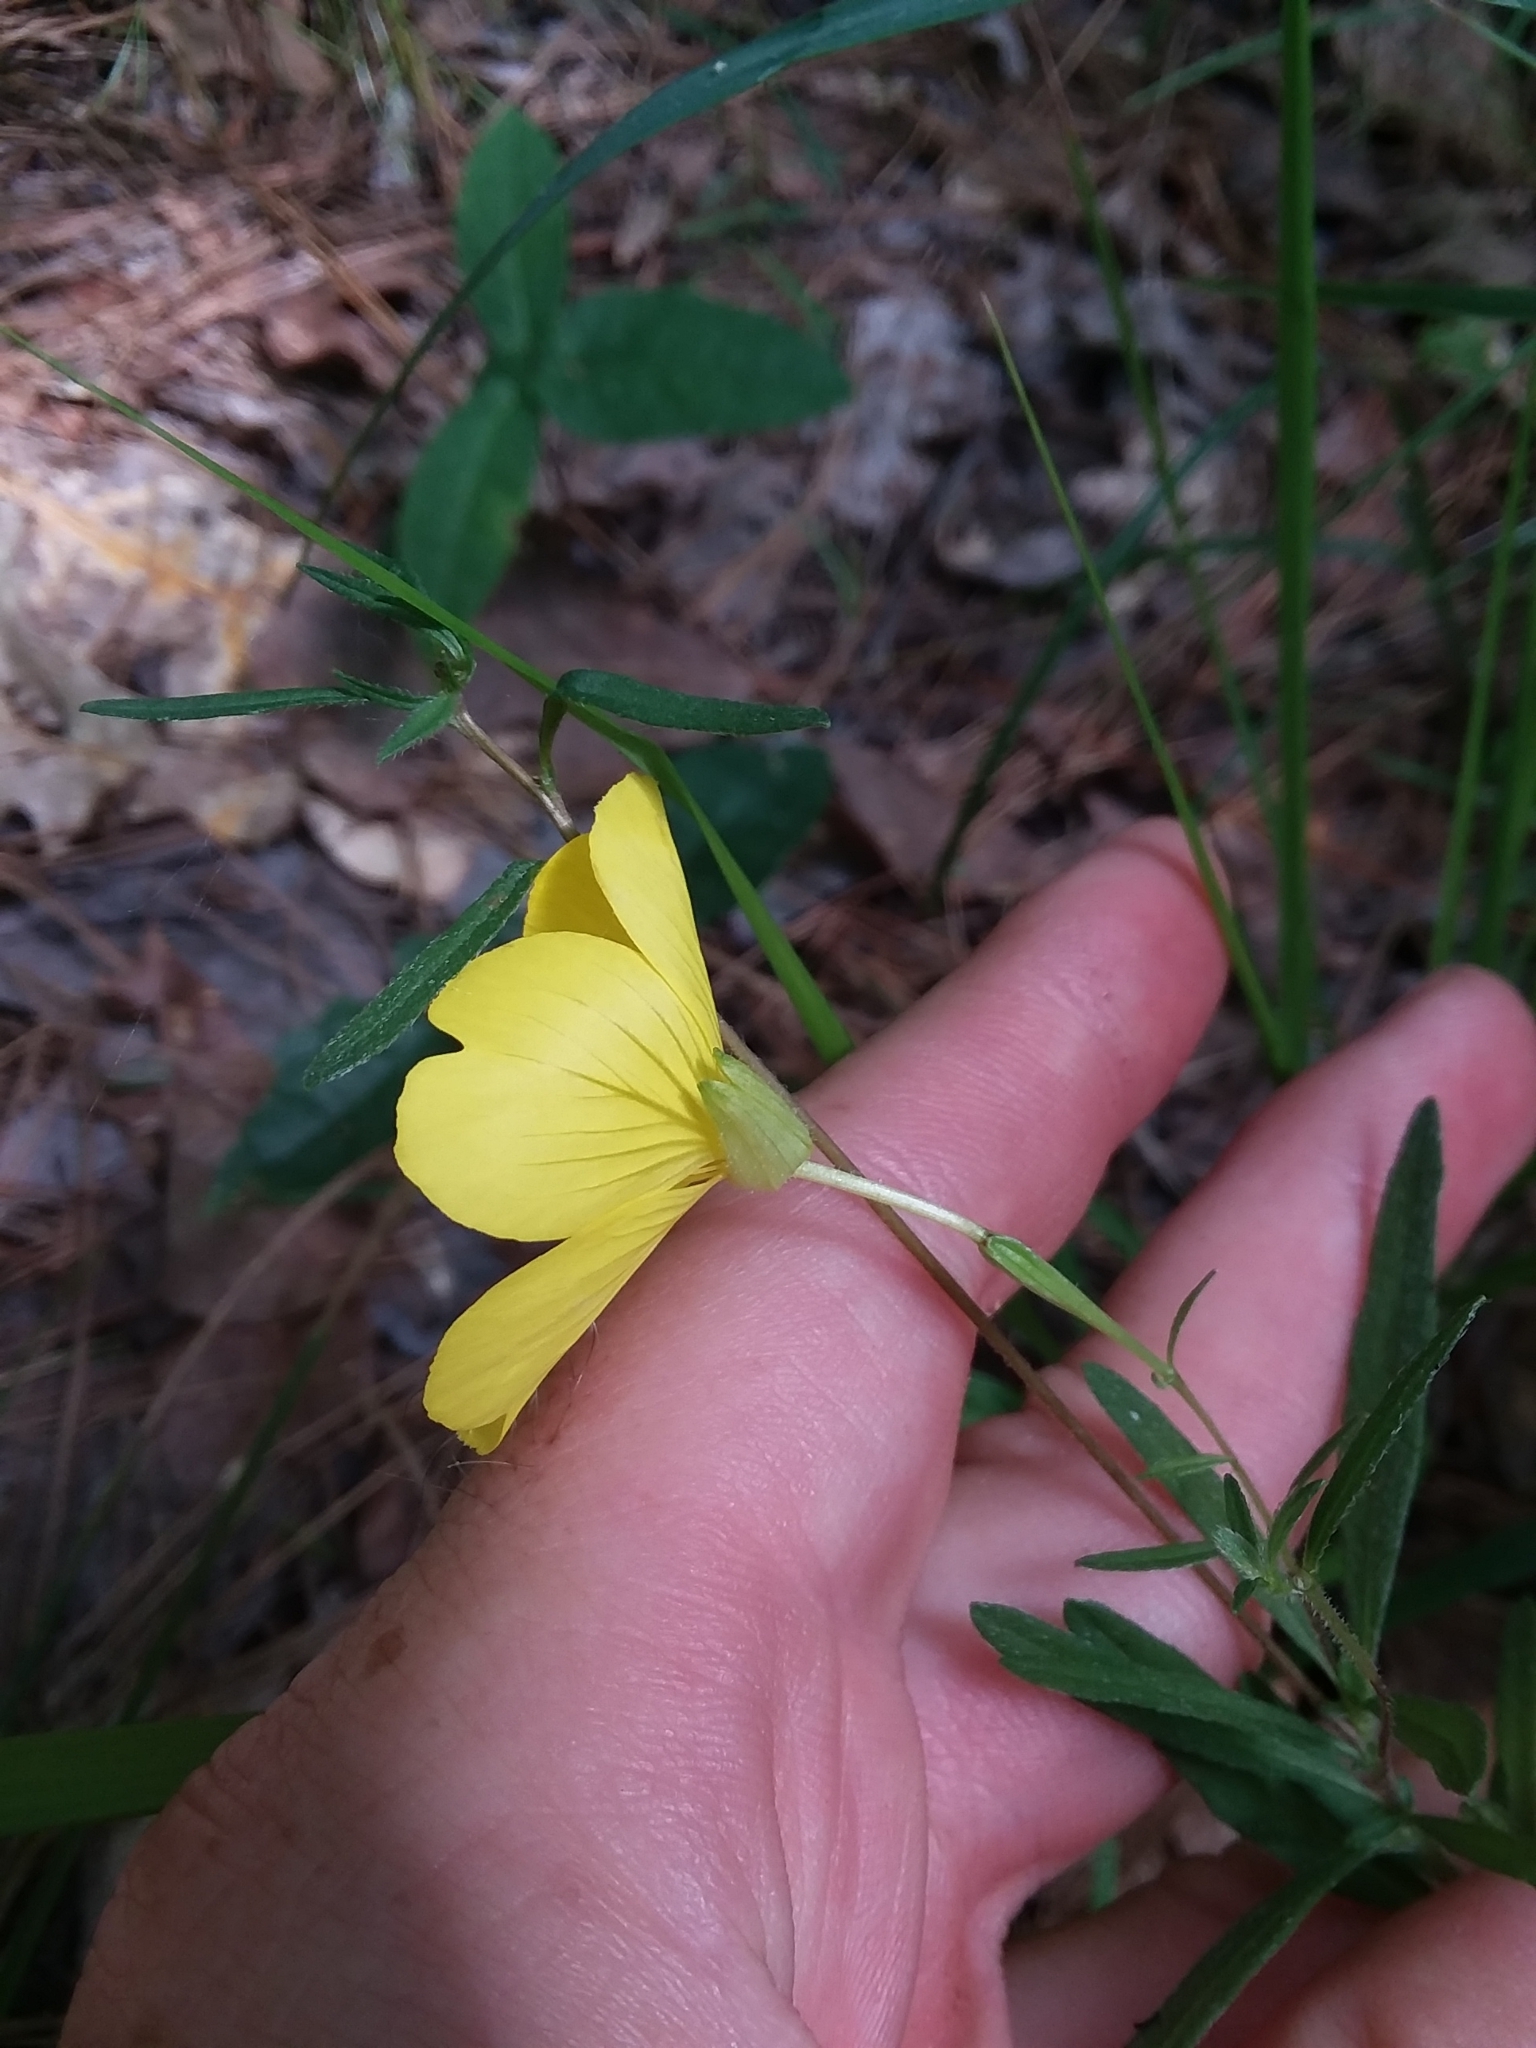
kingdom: Plantae
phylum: Tracheophyta
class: Magnoliopsida
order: Myrtales
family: Onagraceae
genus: Oenothera
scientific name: Oenothera fruticosa
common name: Southern sundrops
